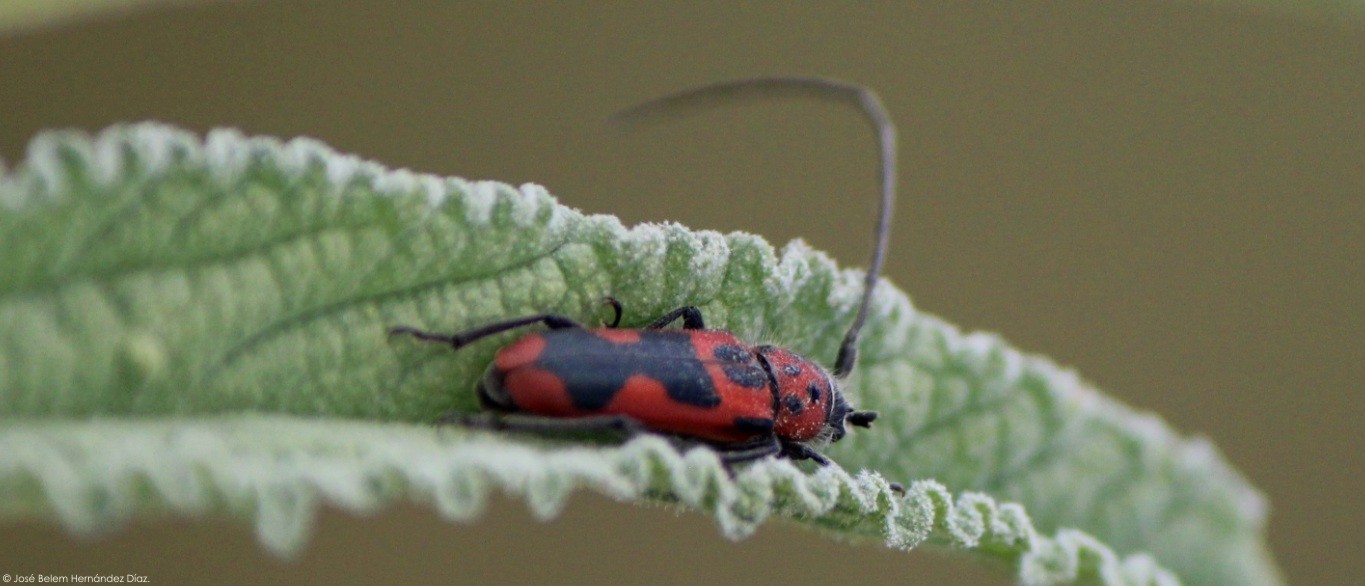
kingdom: Animalia
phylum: Arthropoda
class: Insecta
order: Coleoptera
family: Cerambycidae
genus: Tylosis
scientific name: Tylosis maculatus
